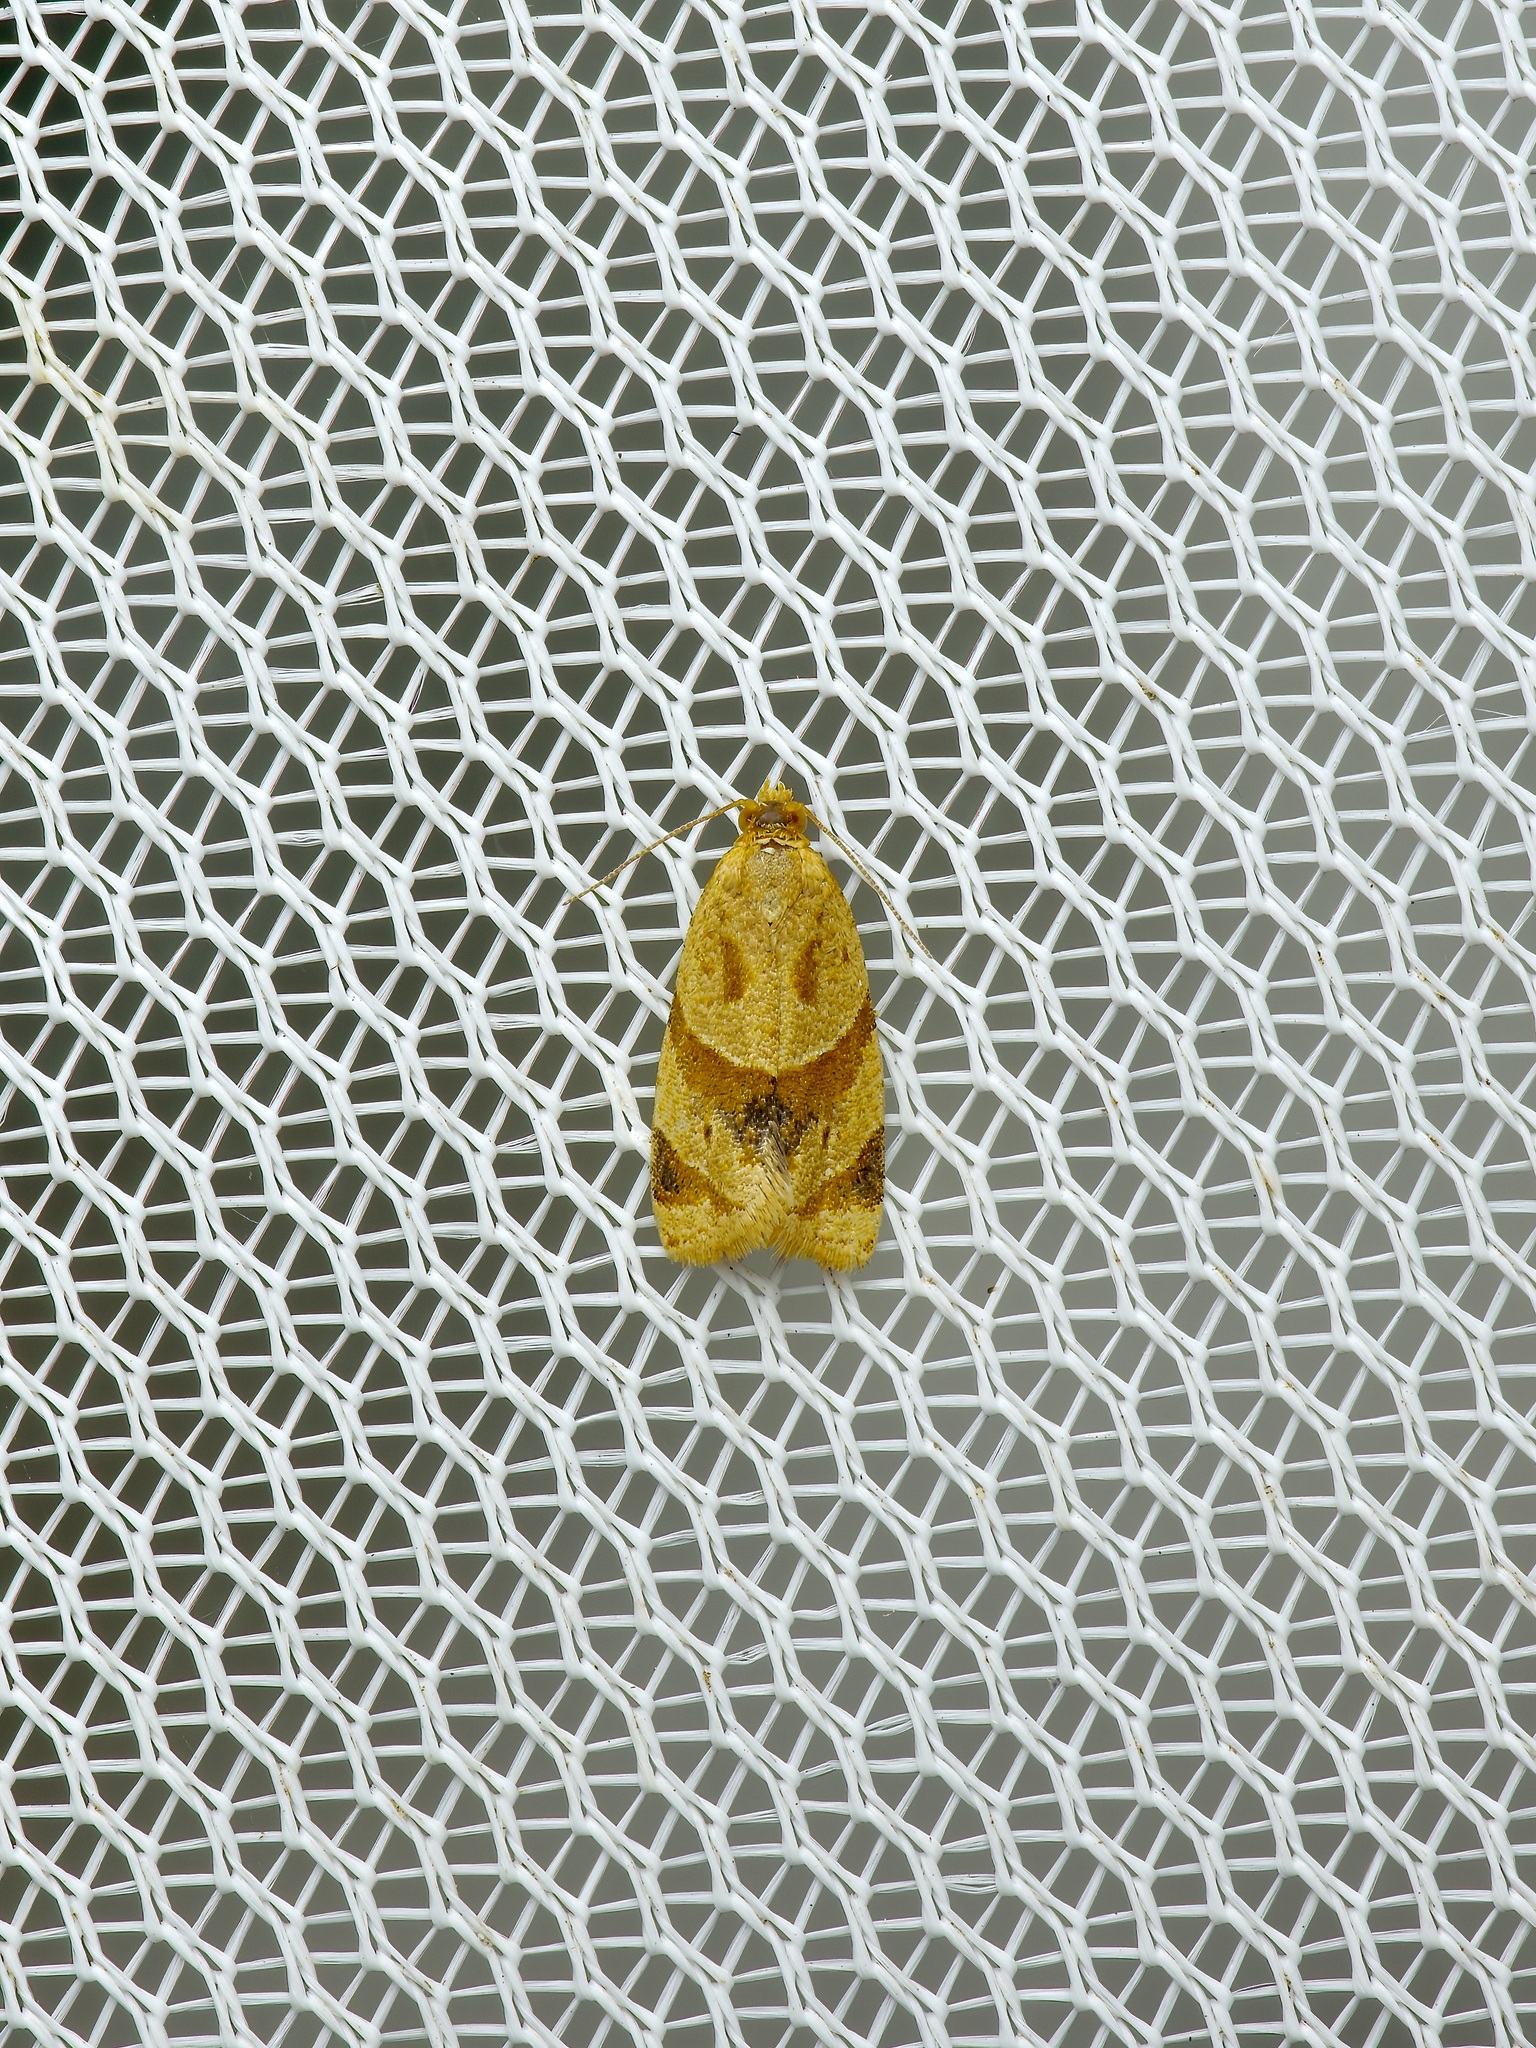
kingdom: Animalia
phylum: Arthropoda
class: Insecta
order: Lepidoptera
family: Tortricidae
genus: Clepsis
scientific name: Clepsis peritana
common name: Garden tortrix
